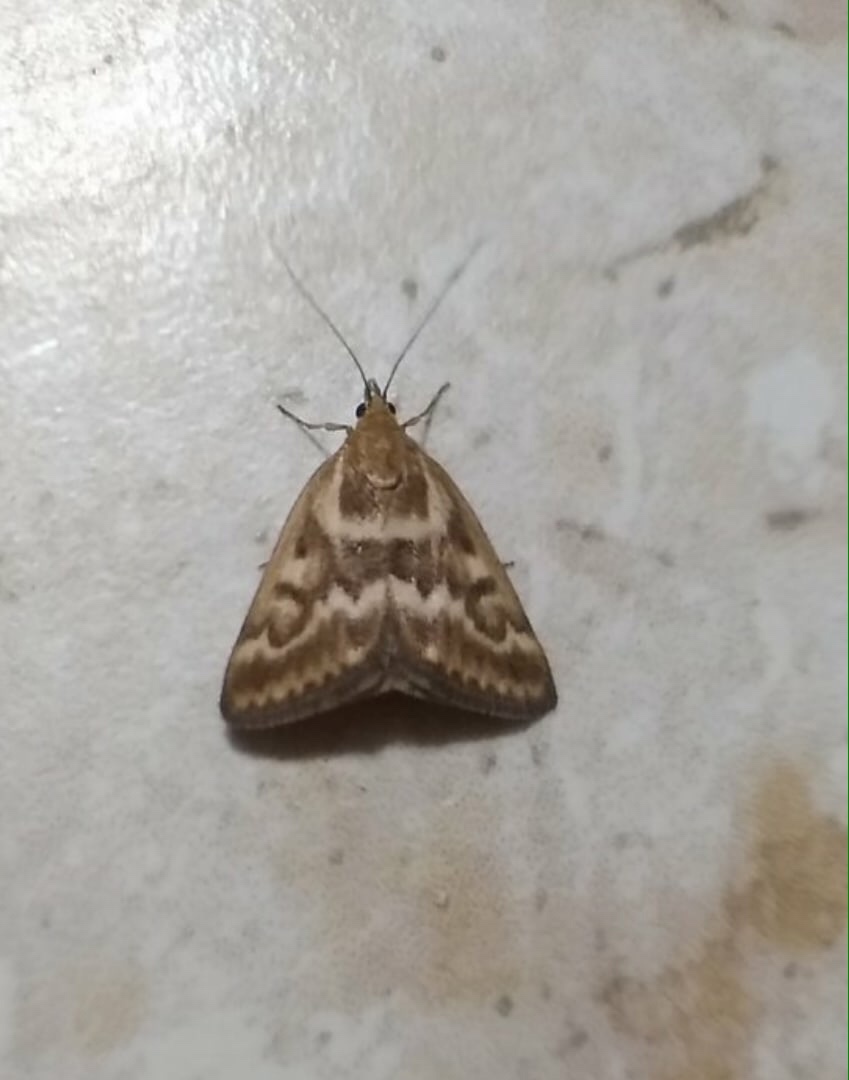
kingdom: Animalia
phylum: Arthropoda
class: Insecta
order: Lepidoptera
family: Crambidae
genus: Pyrausta
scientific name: Pyrausta limbopunctalis
